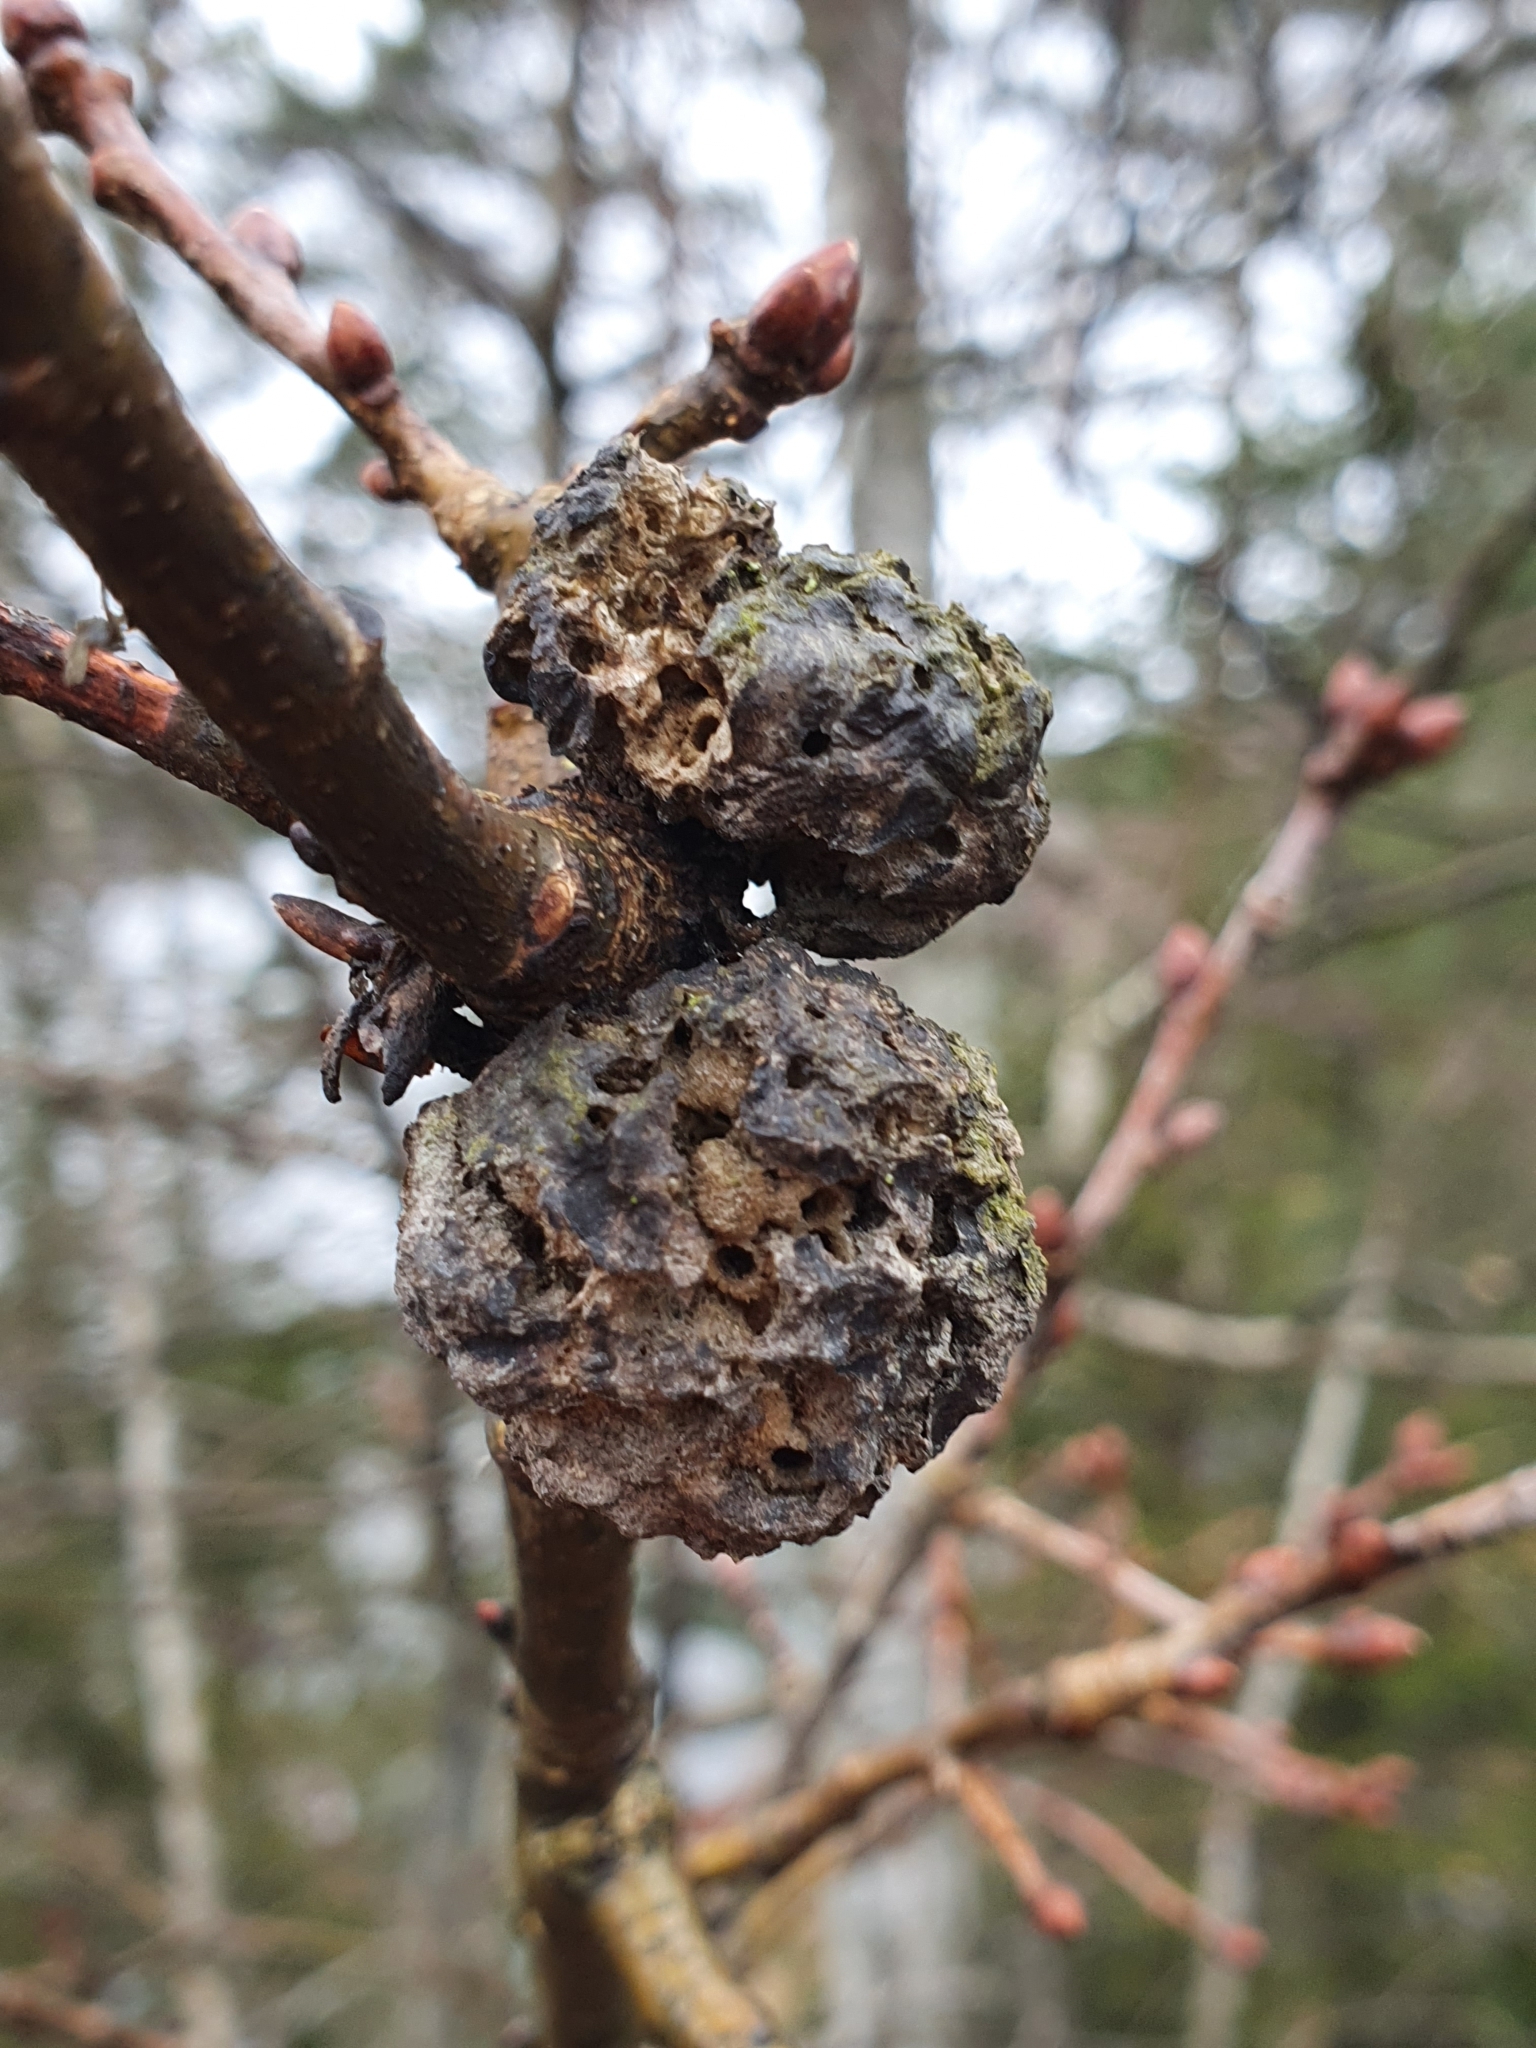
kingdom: Animalia
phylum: Arthropoda
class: Insecta
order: Hymenoptera
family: Cynipidae
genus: Biorhiza
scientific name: Biorhiza pallida
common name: Oak apple
